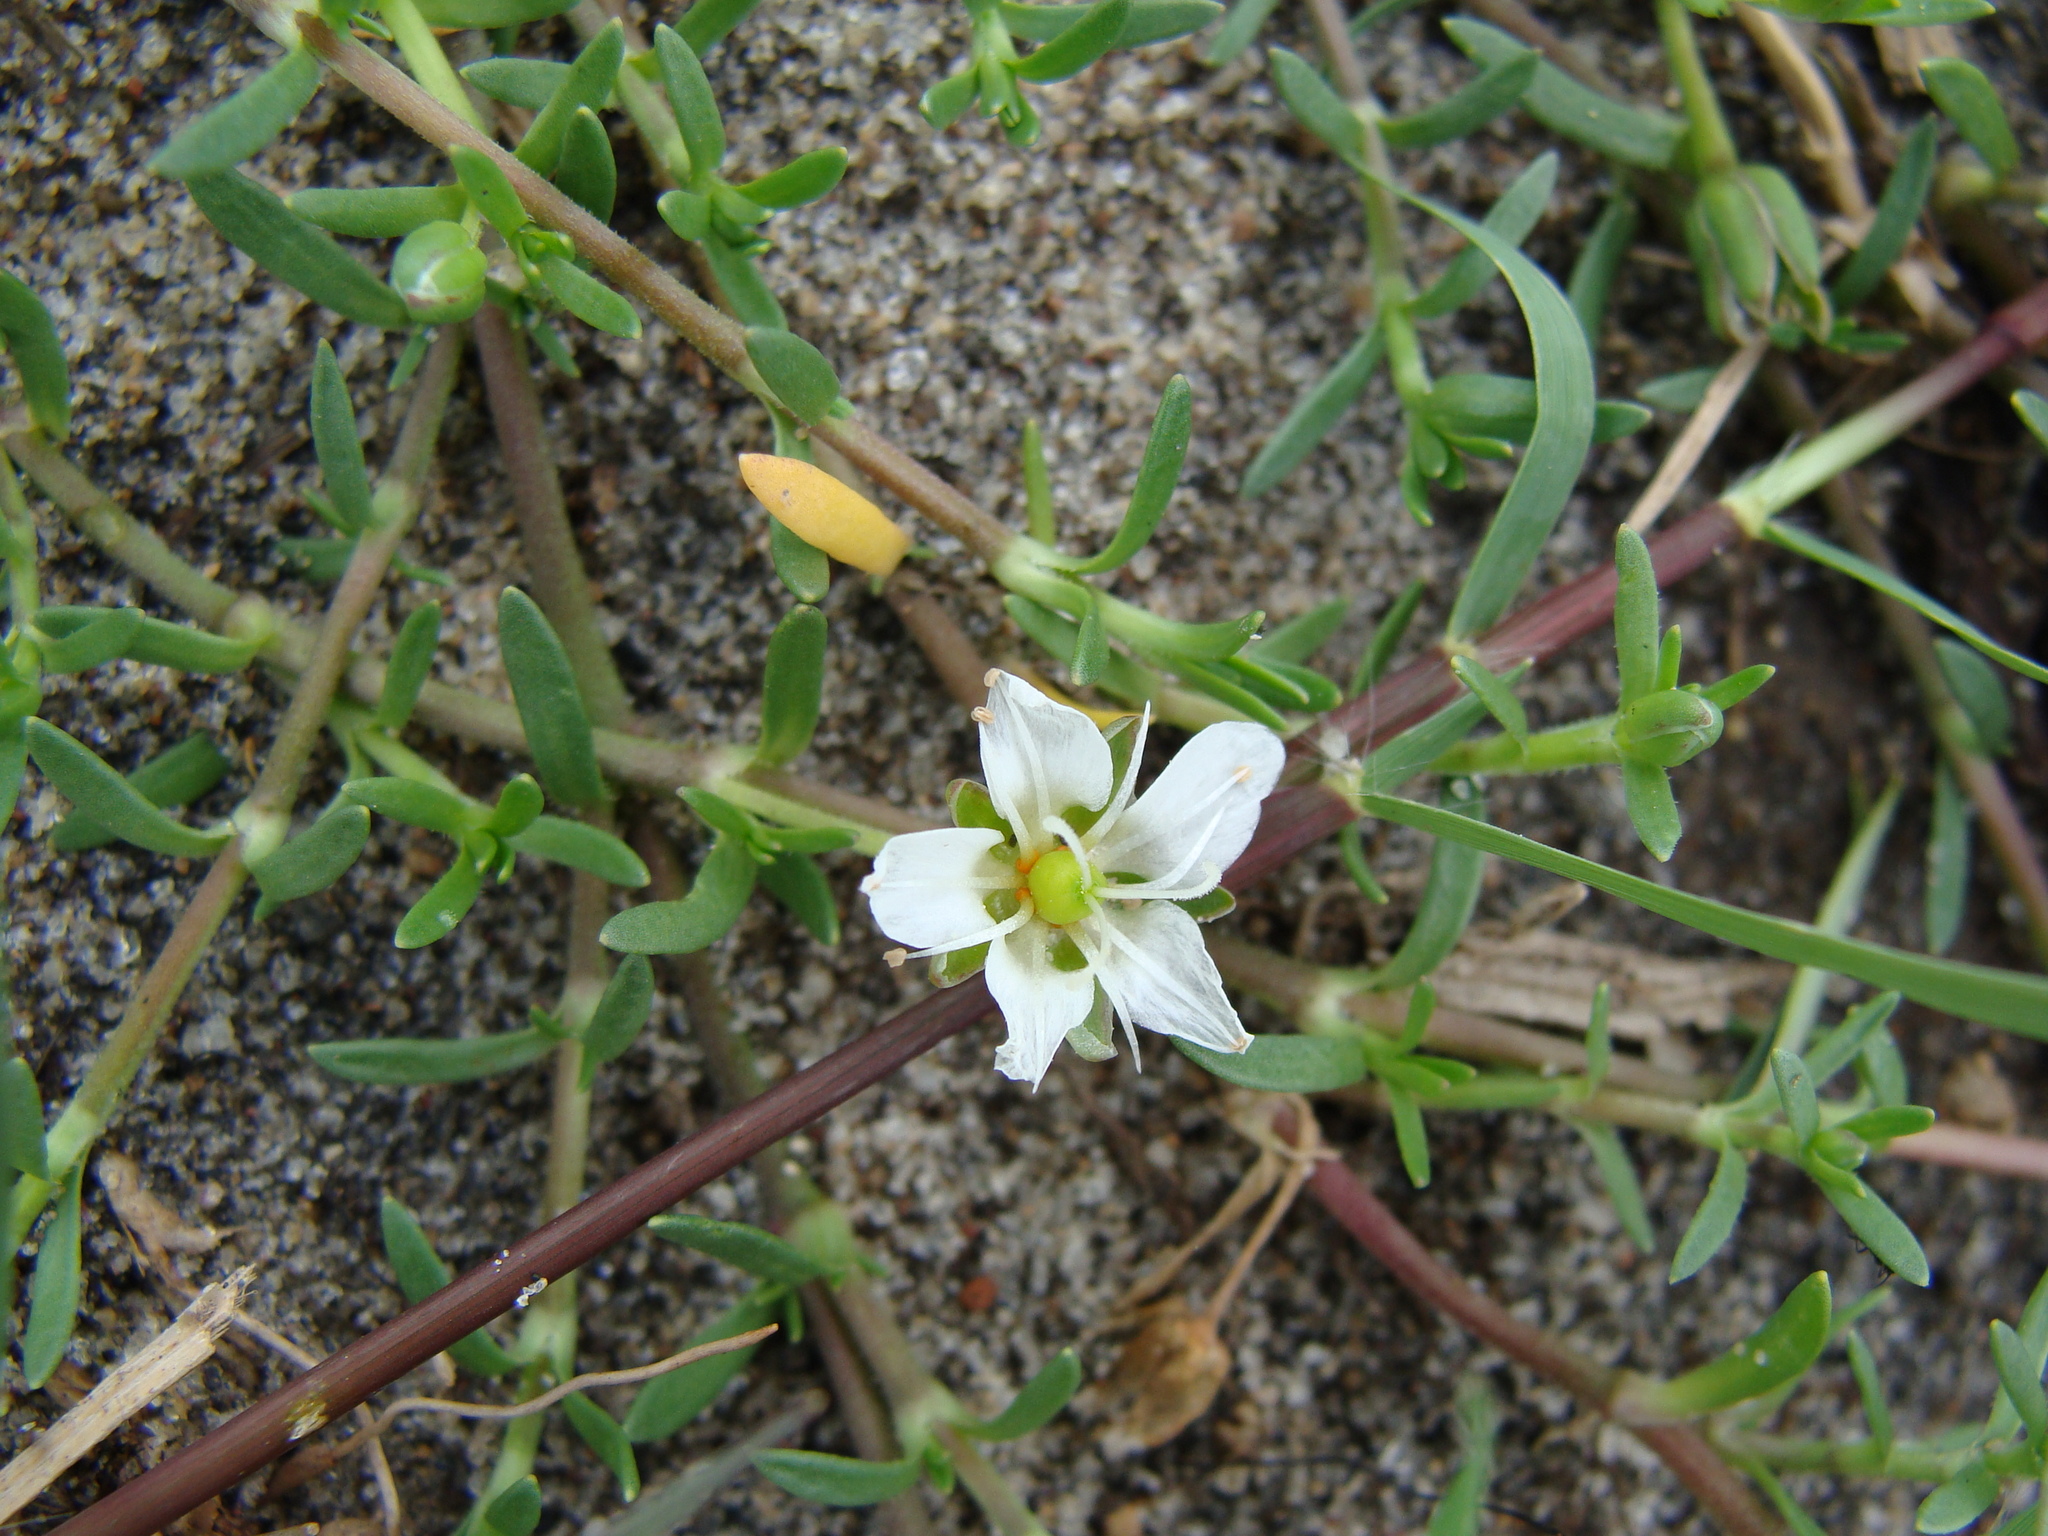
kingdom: Plantae
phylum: Tracheophyta
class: Magnoliopsida
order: Caryophyllales
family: Caryophyllaceae
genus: Arenaria
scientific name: Arenaria bourgaei
